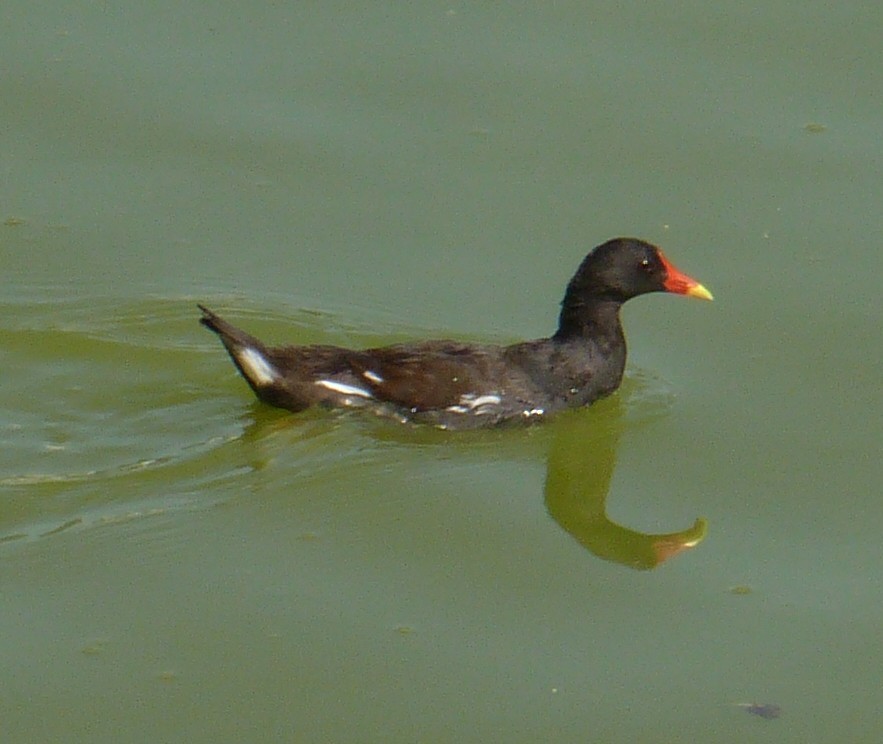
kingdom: Animalia
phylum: Chordata
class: Aves
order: Gruiformes
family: Rallidae
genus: Gallinula
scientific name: Gallinula chloropus
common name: Common moorhen
